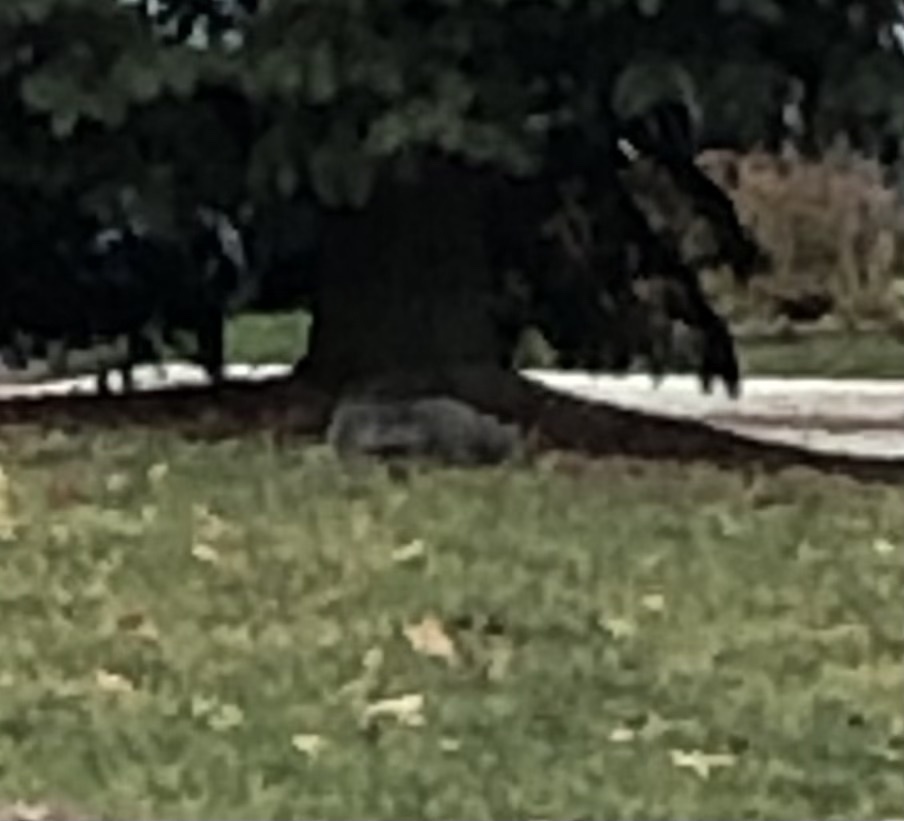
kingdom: Animalia
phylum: Chordata
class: Mammalia
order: Rodentia
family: Sciuridae
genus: Sciurus
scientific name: Sciurus carolinensis
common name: Eastern gray squirrel
